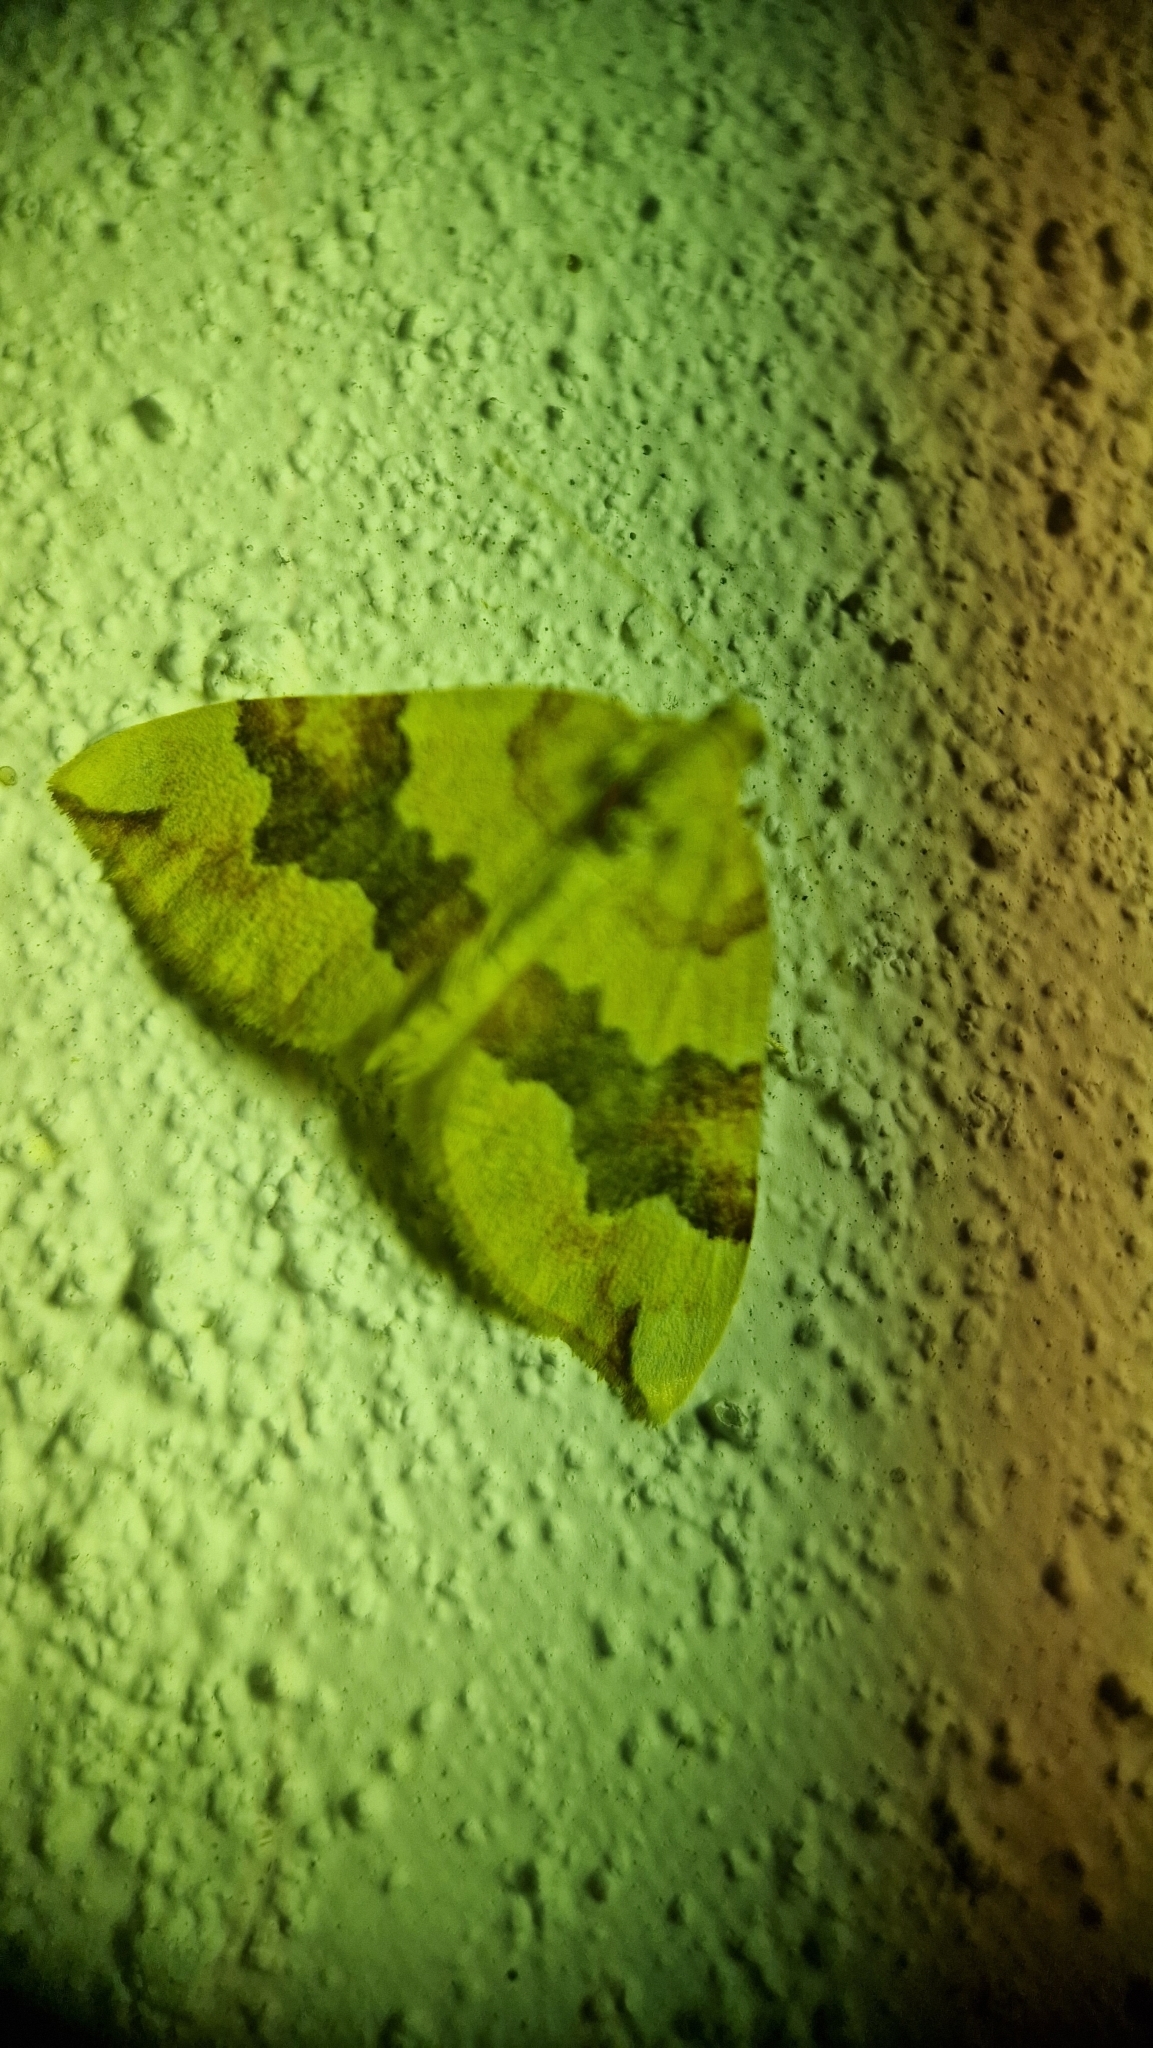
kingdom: Animalia
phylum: Arthropoda
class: Insecta
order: Lepidoptera
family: Geometridae
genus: Cidaria
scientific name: Cidaria fulvata
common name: Barred yellow
